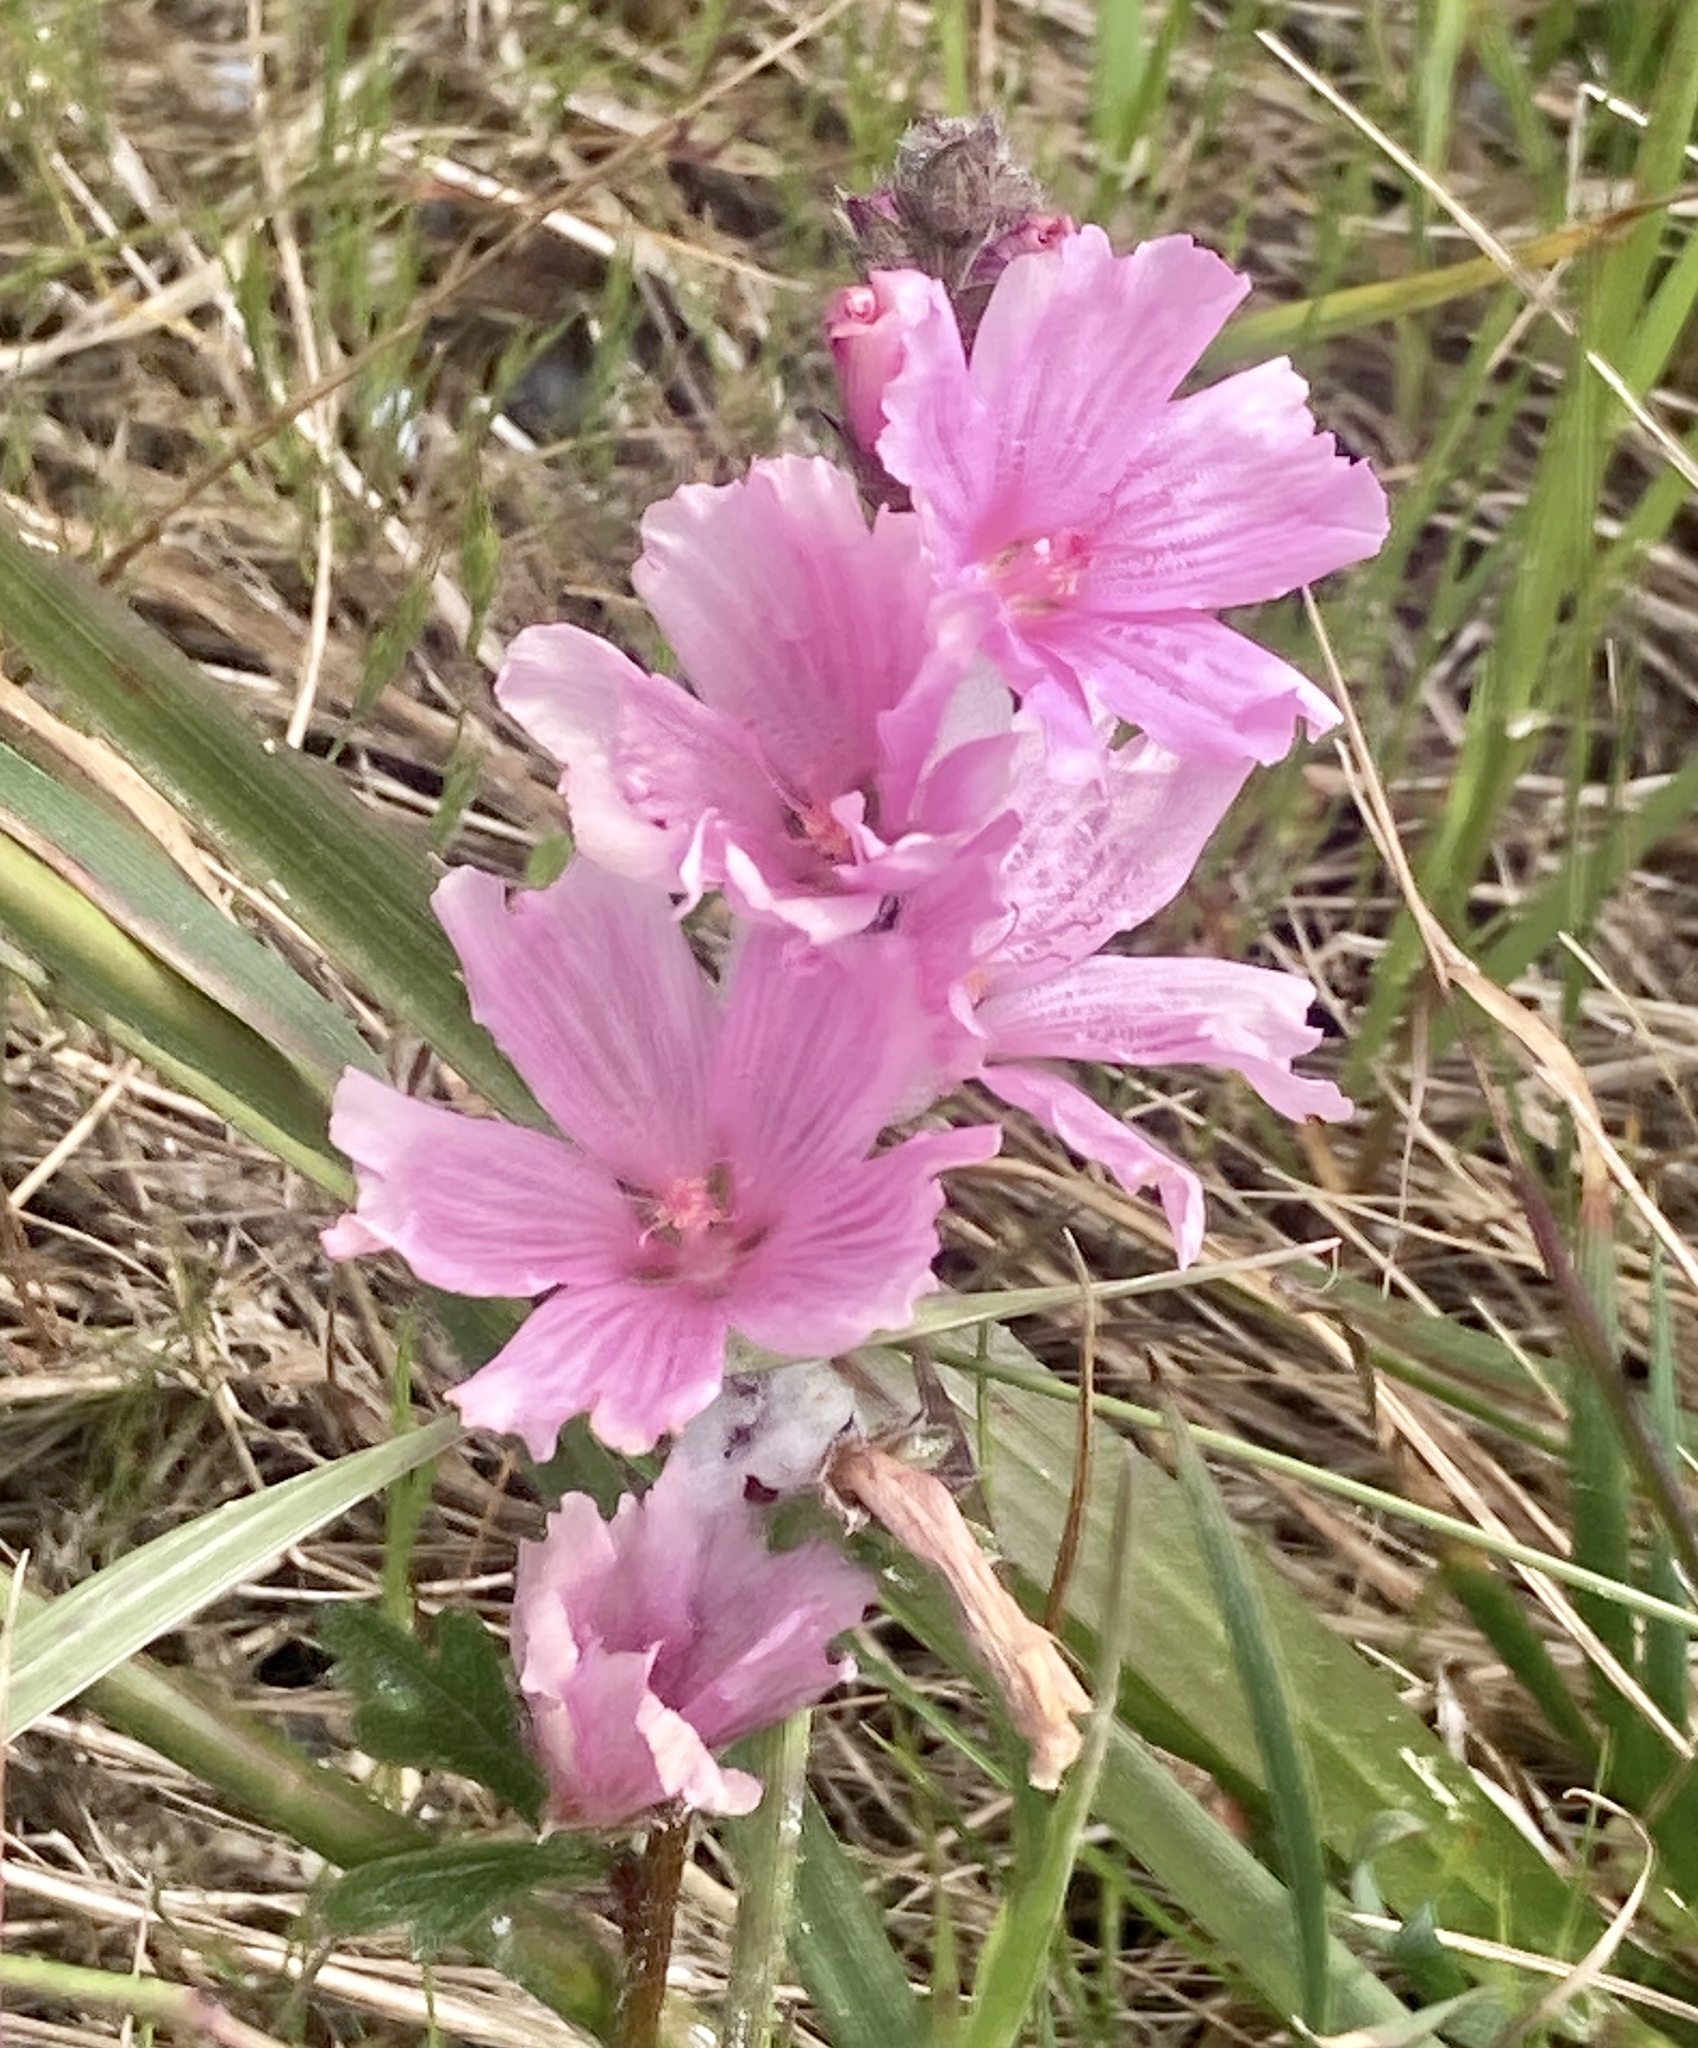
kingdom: Plantae
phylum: Tracheophyta
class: Magnoliopsida
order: Malvales
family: Malvaceae
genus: Sidalcea
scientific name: Sidalcea malviflora
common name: Greek mallow
